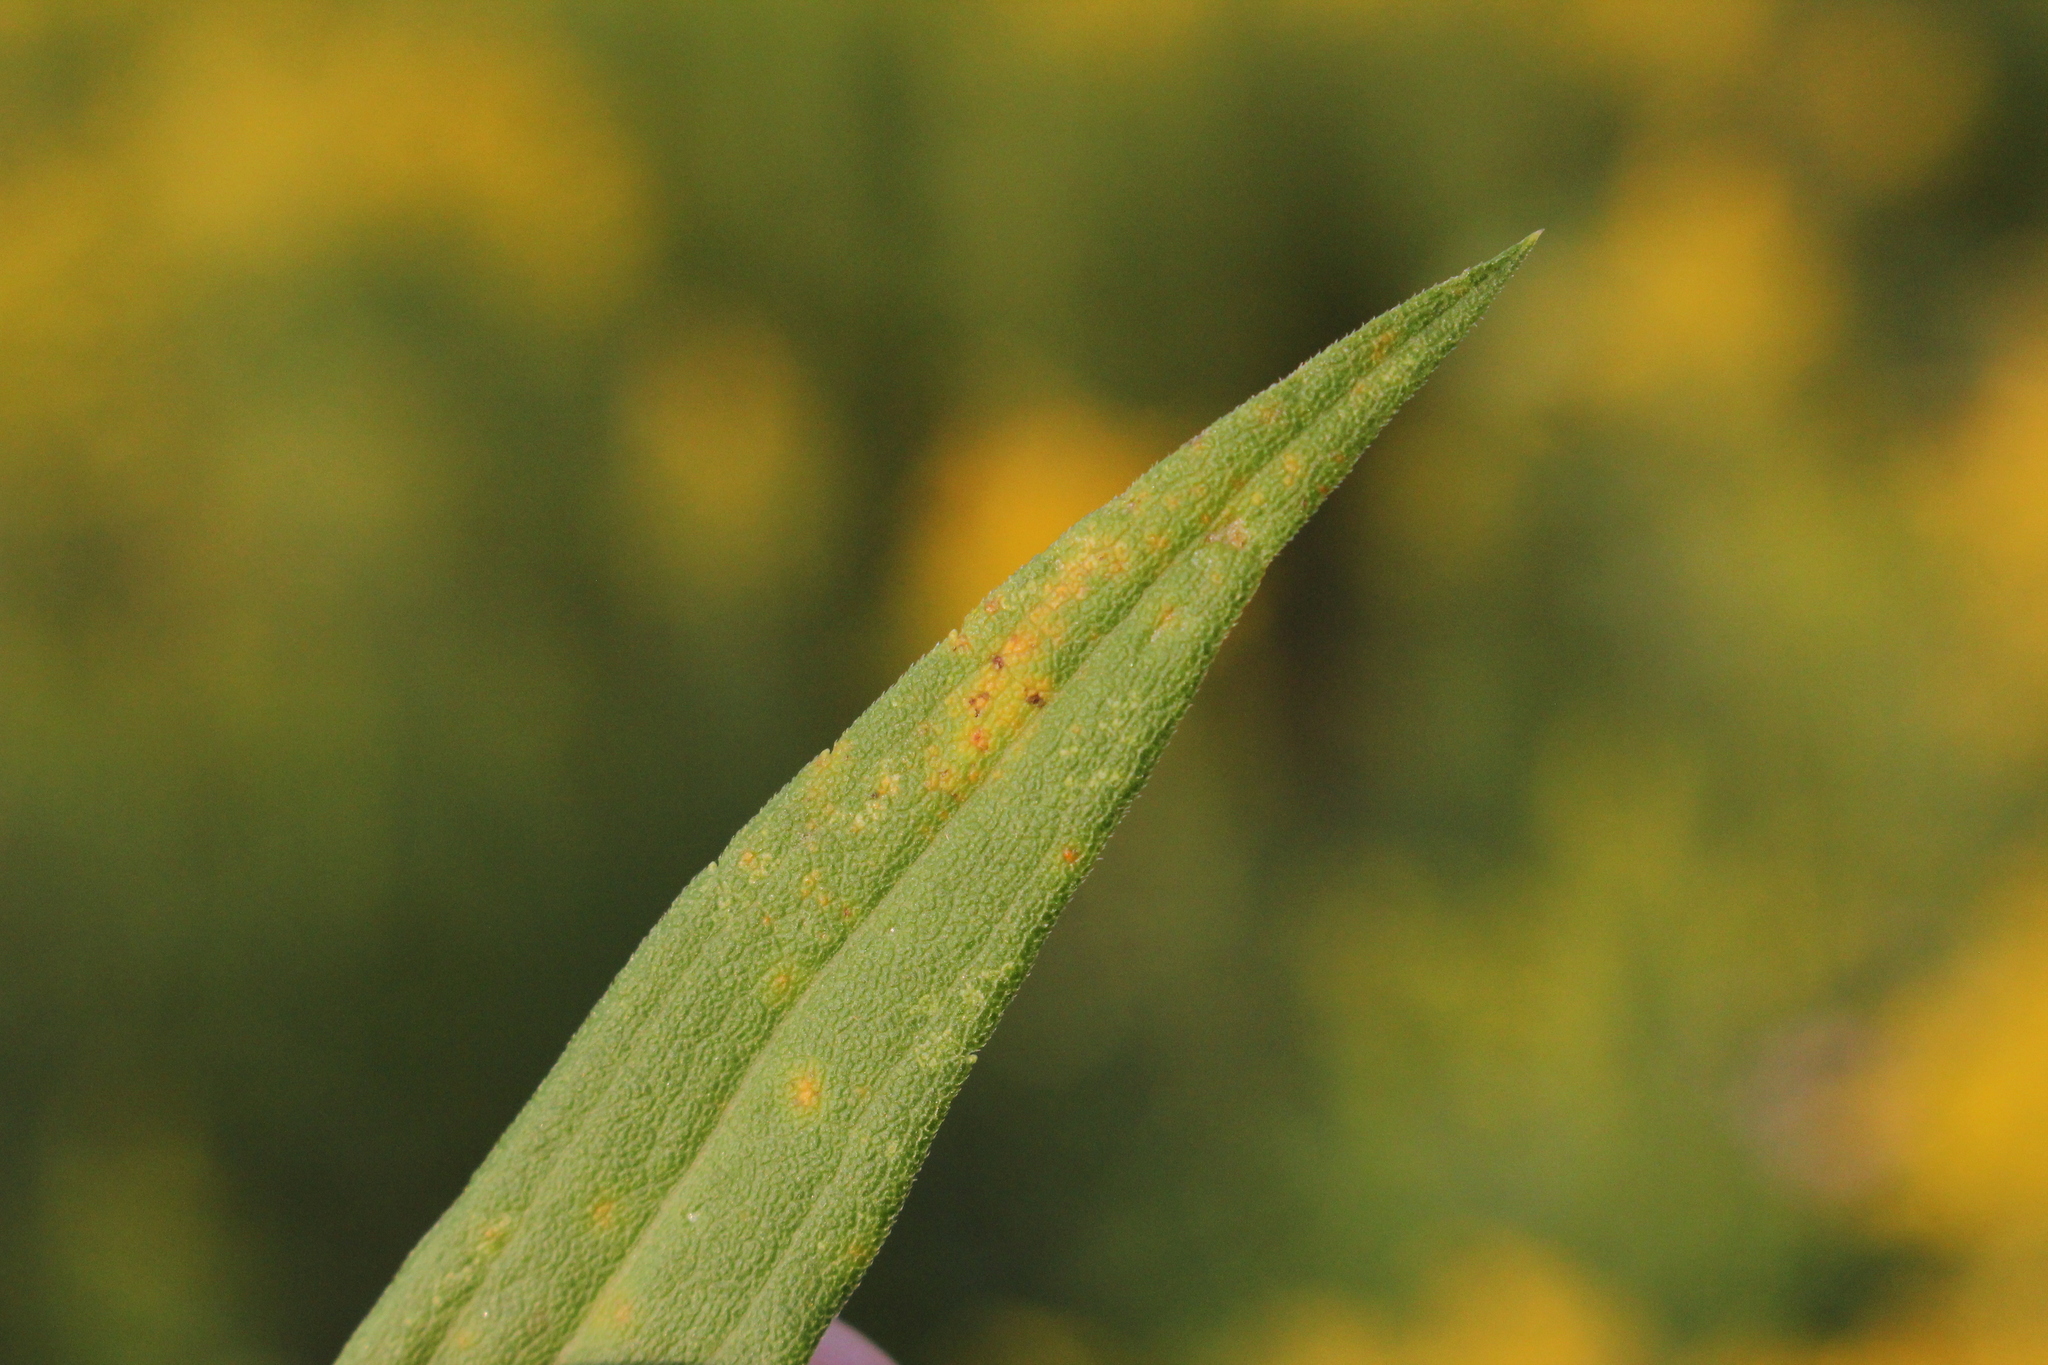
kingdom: Fungi
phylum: Basidiomycota
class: Pucciniomycetes
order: Pucciniales
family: Coleosporiaceae
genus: Coleosporium
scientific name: Coleosporium asterum
